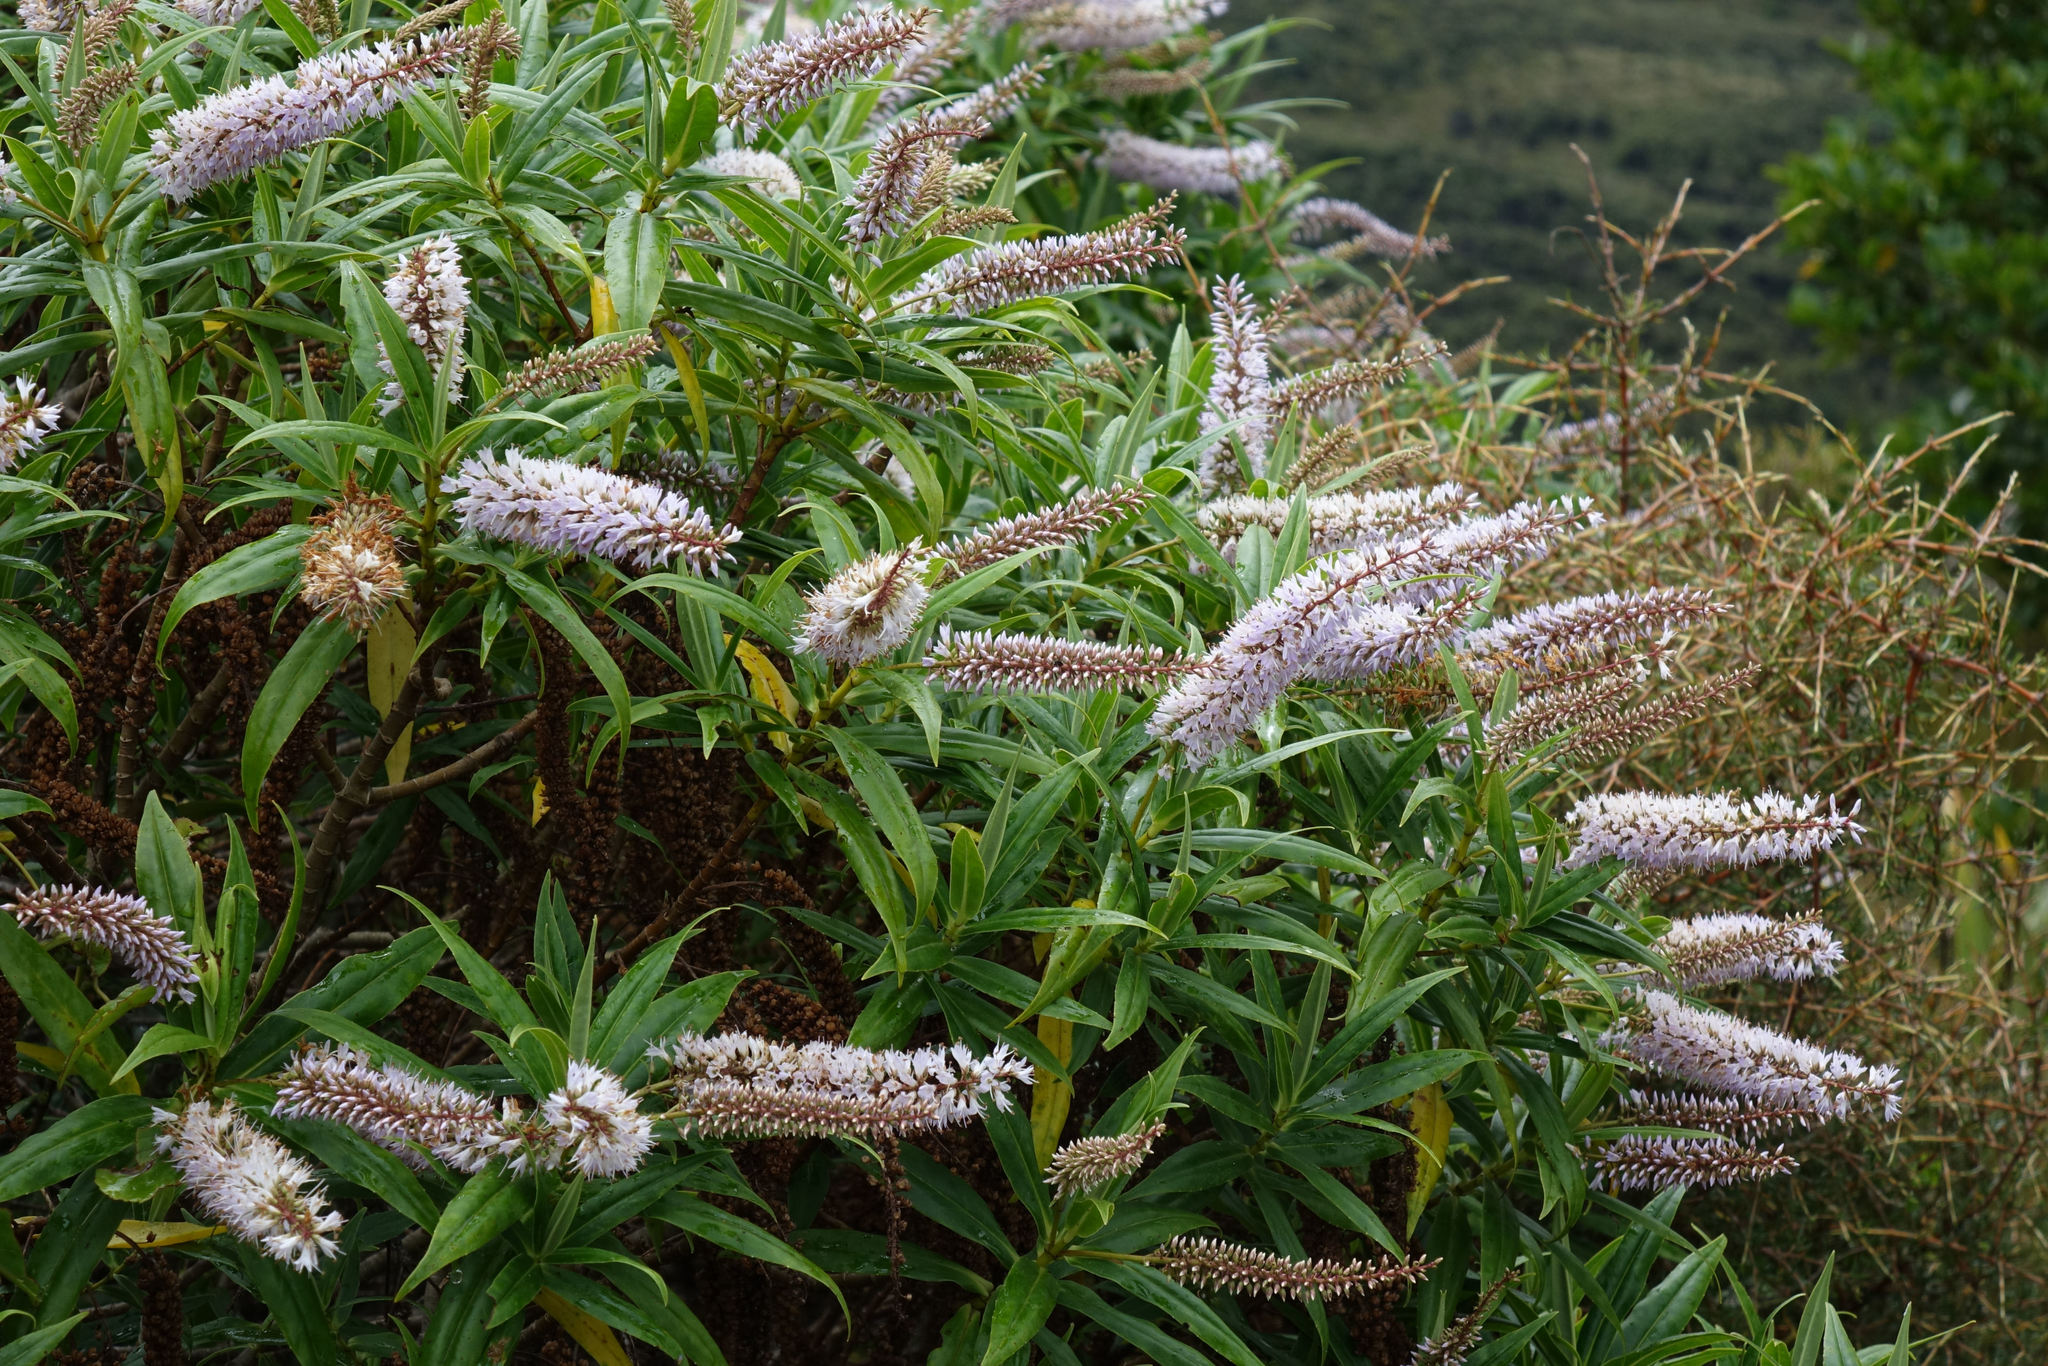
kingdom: Plantae
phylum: Tracheophyta
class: Magnoliopsida
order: Lamiales
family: Plantaginaceae
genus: Veronica
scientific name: Veronica salicifolia
